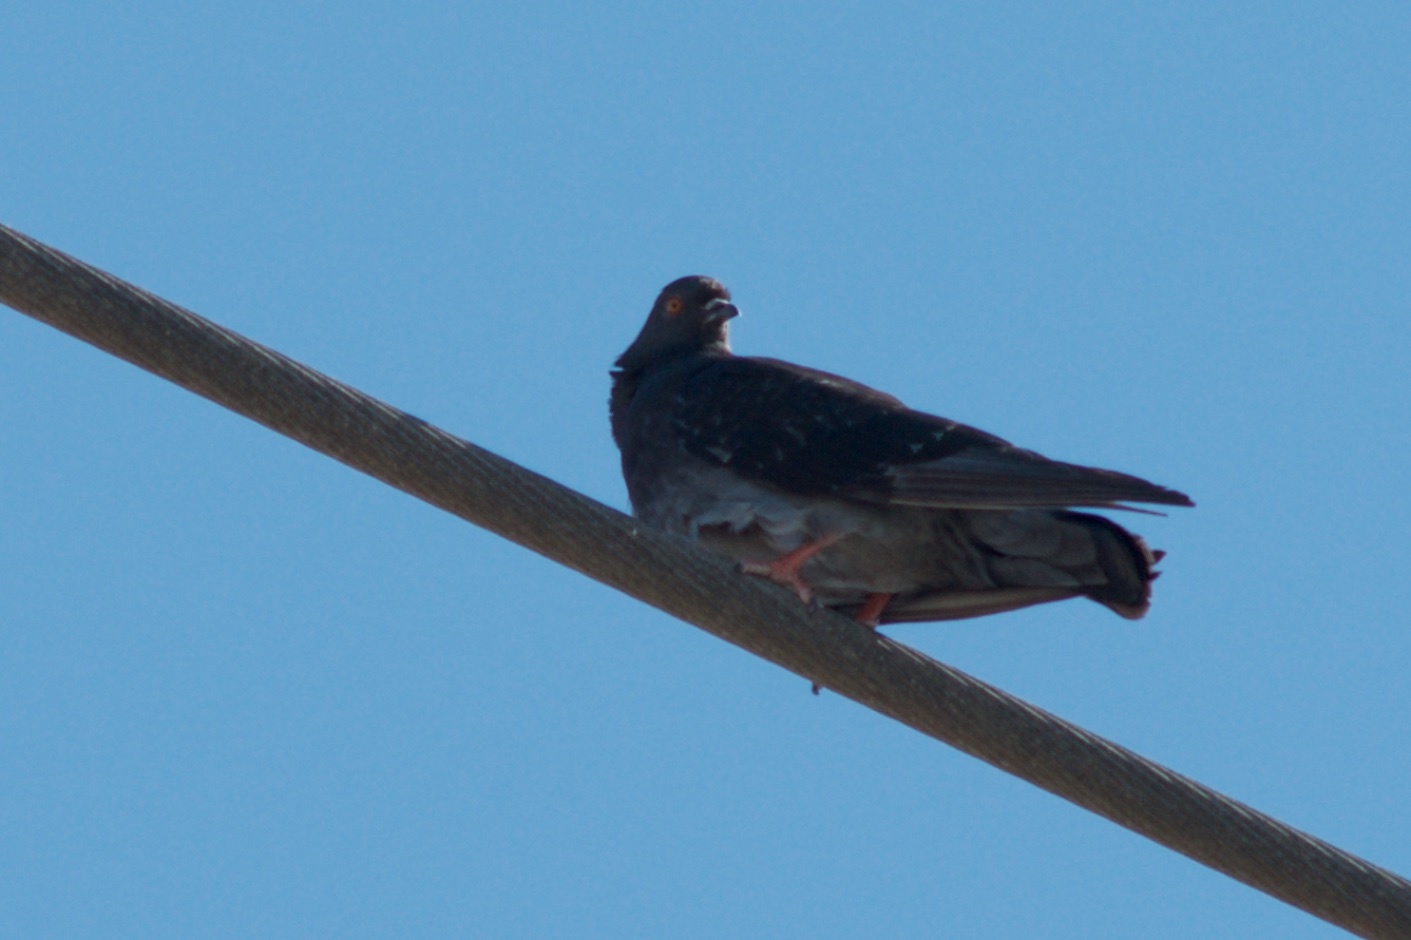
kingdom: Animalia
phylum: Chordata
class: Aves
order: Columbiformes
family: Columbidae
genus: Columba
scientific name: Columba livia
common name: Rock pigeon
